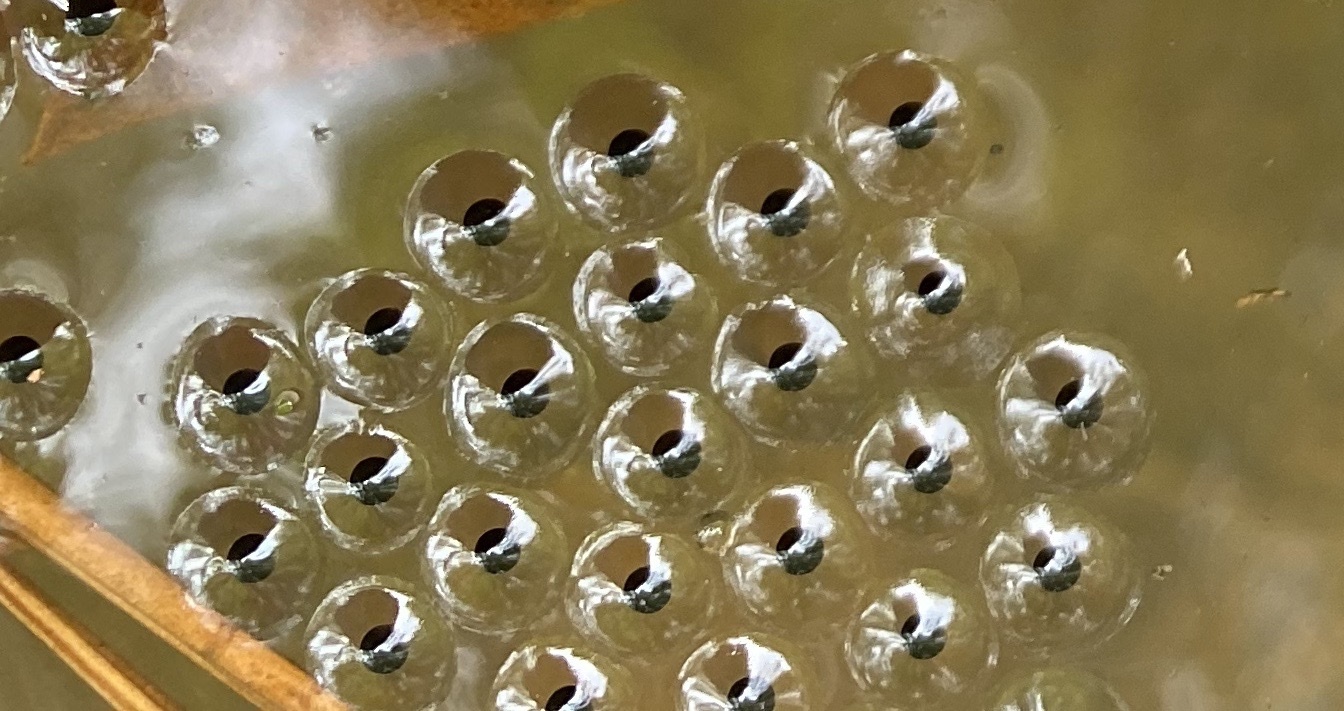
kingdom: Animalia
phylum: Chordata
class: Amphibia
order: Anura
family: Microhylidae
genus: Gastrophryne
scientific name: Gastrophryne carolinensis
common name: Eastern narrowmouth toad
